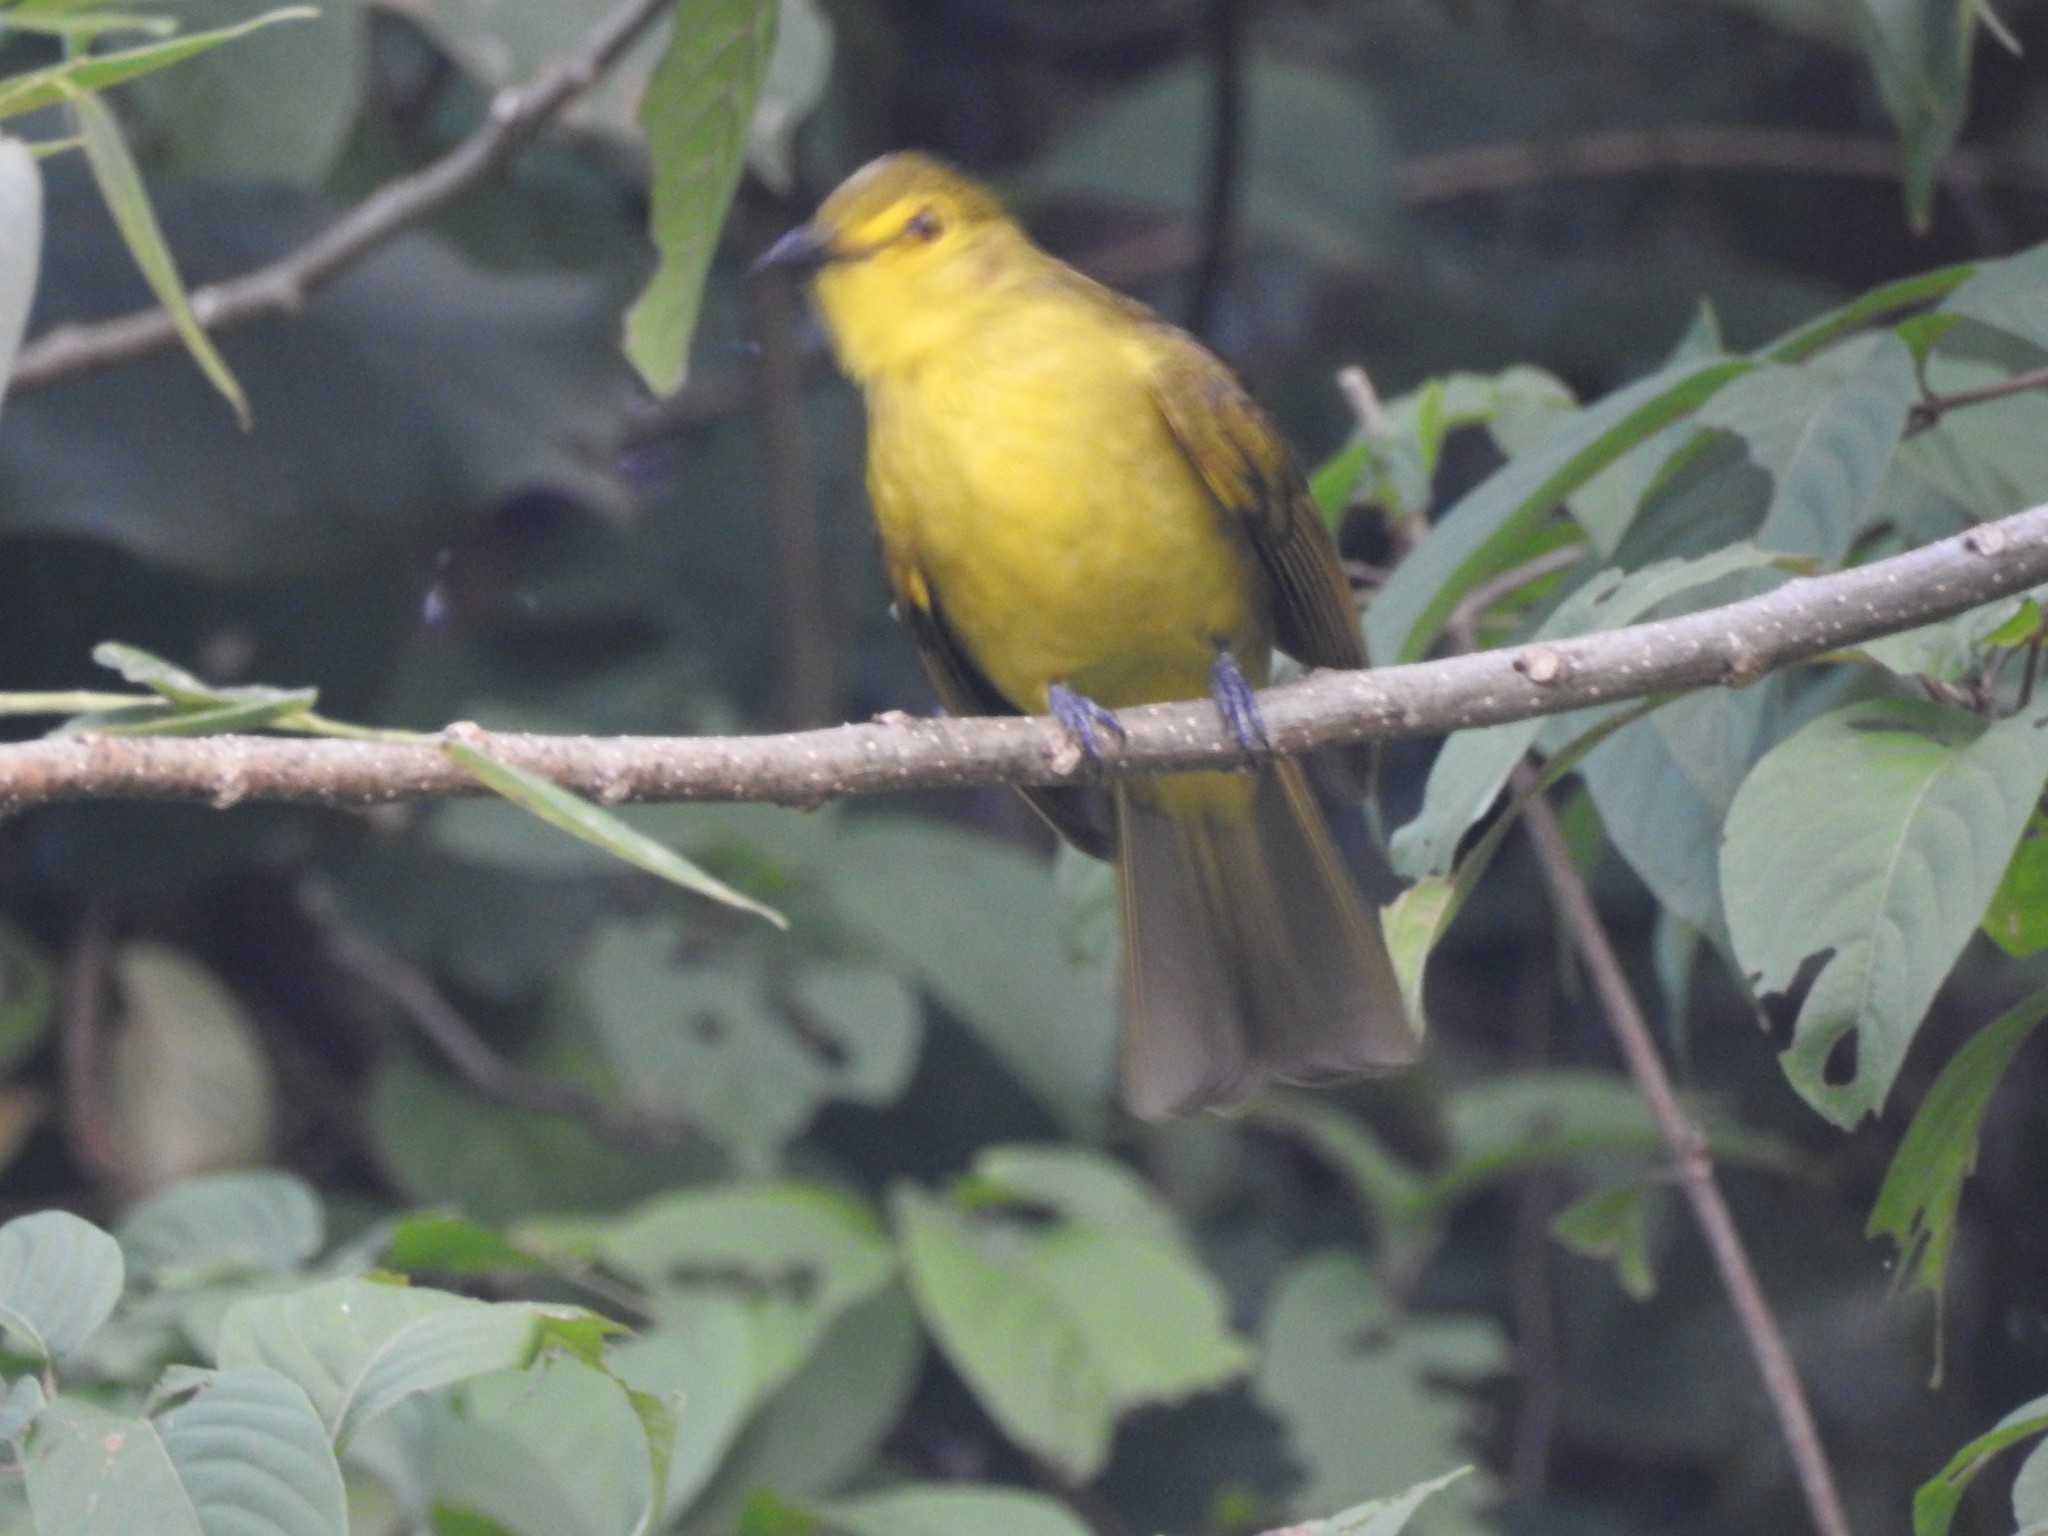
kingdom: Animalia
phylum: Chordata
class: Aves
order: Passeriformes
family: Pycnonotidae
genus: Acritillas
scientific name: Acritillas indica
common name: Yellow-browed bulbul
